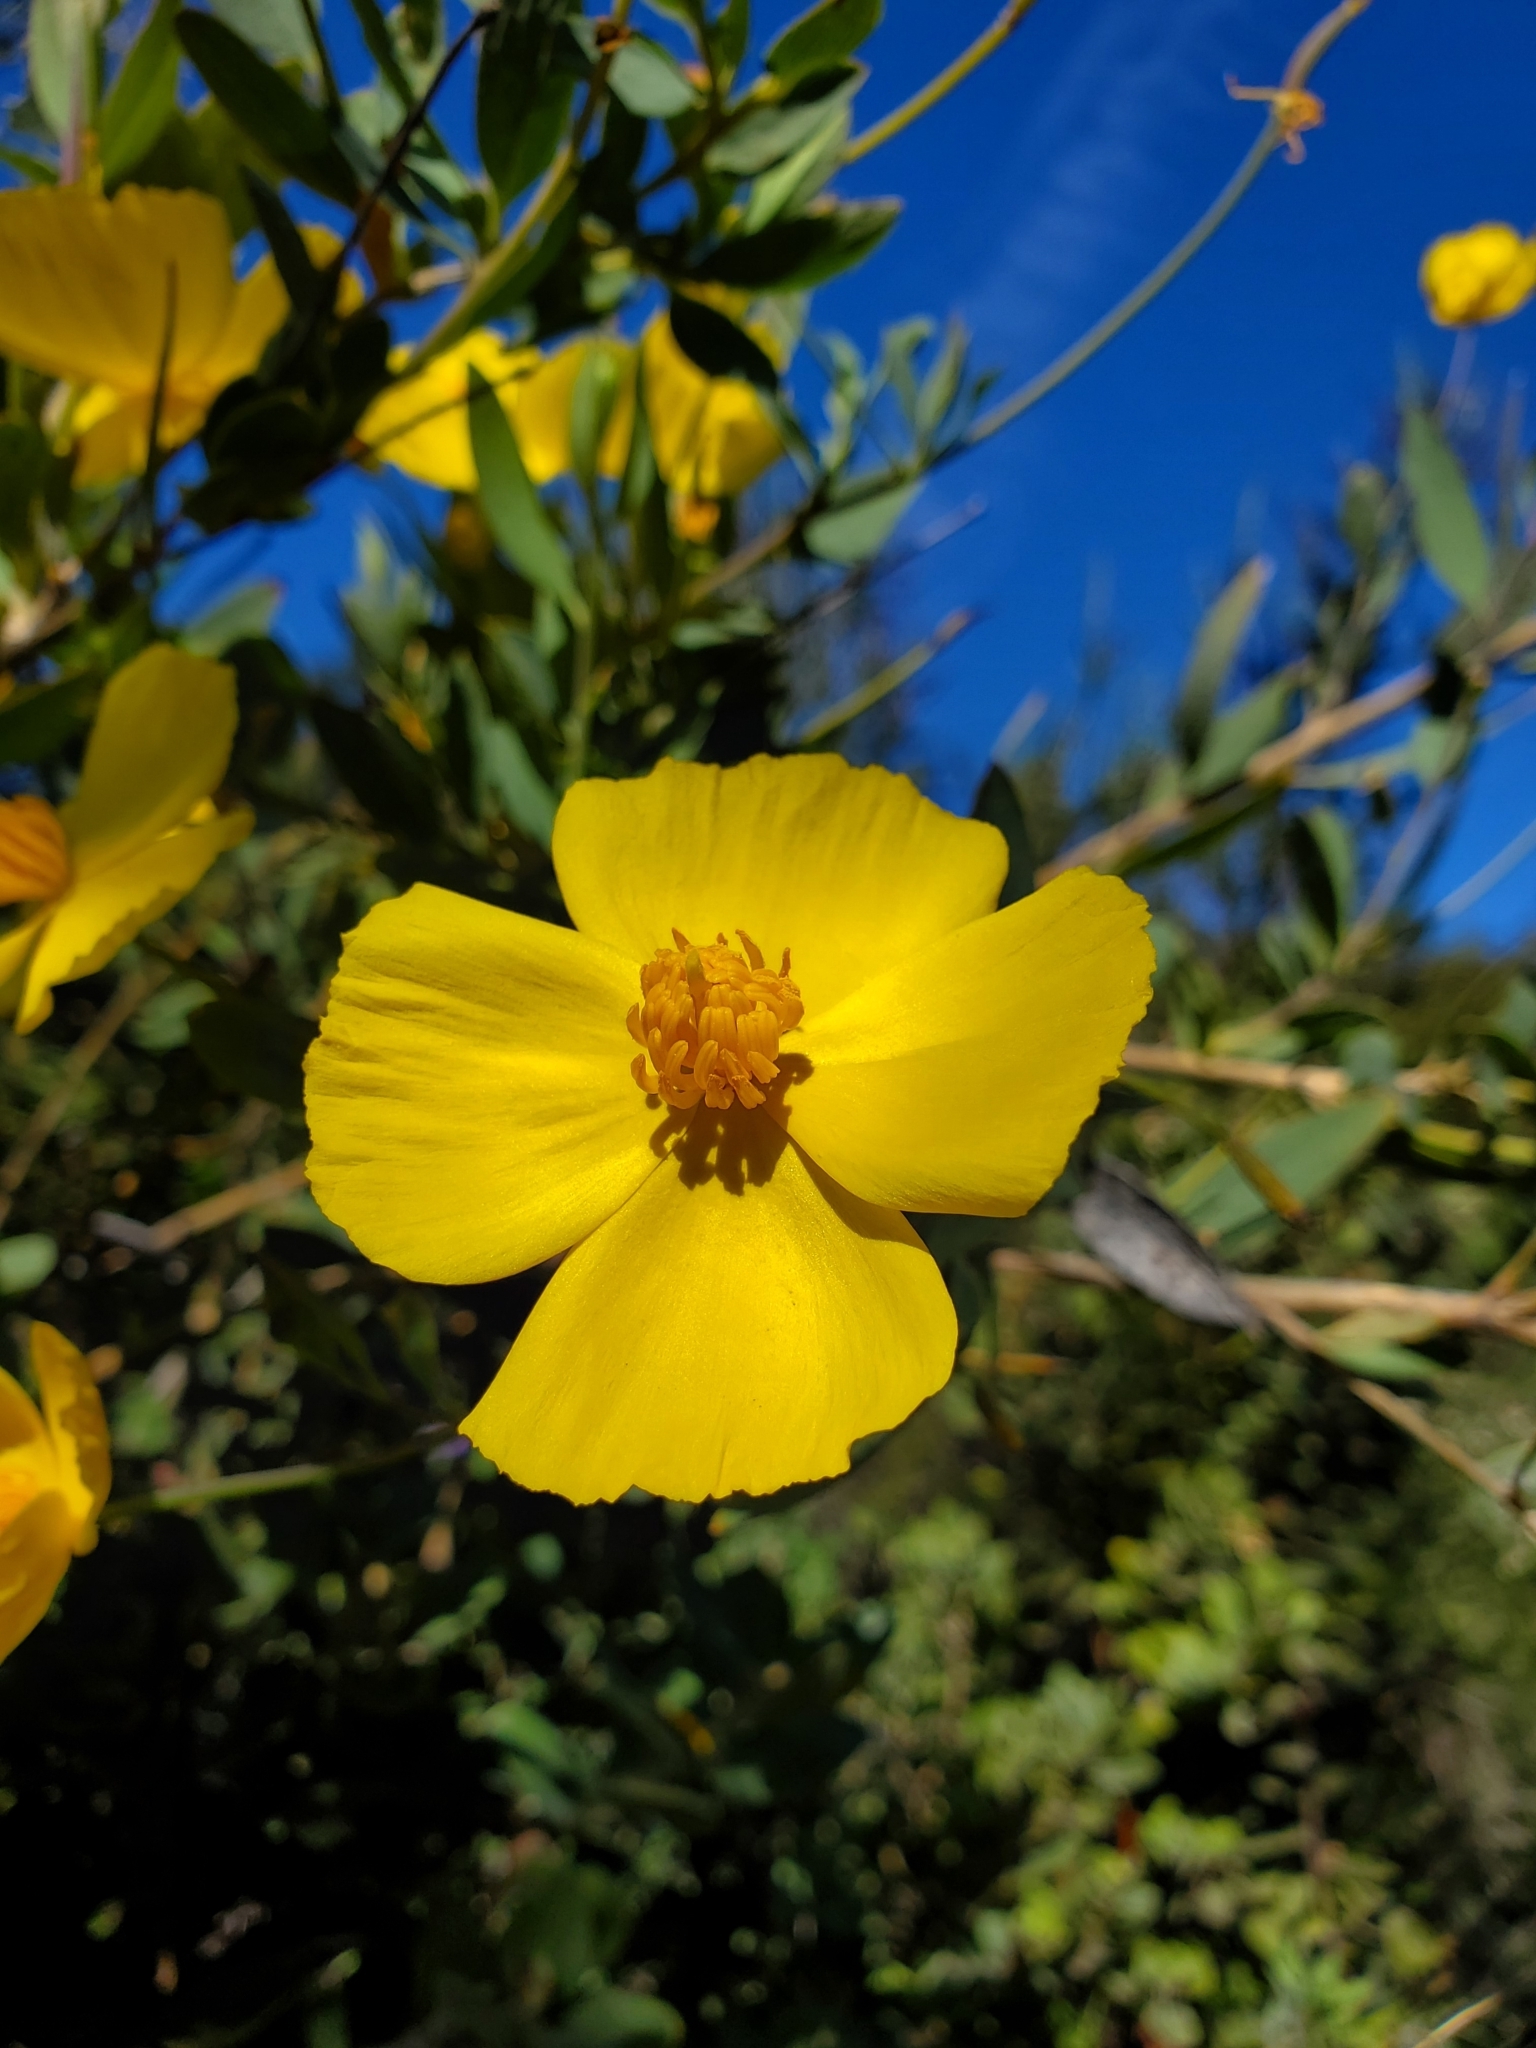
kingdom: Plantae
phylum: Tracheophyta
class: Magnoliopsida
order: Ranunculales
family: Papaveraceae
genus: Dendromecon
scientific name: Dendromecon rigida
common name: Tree poppy
